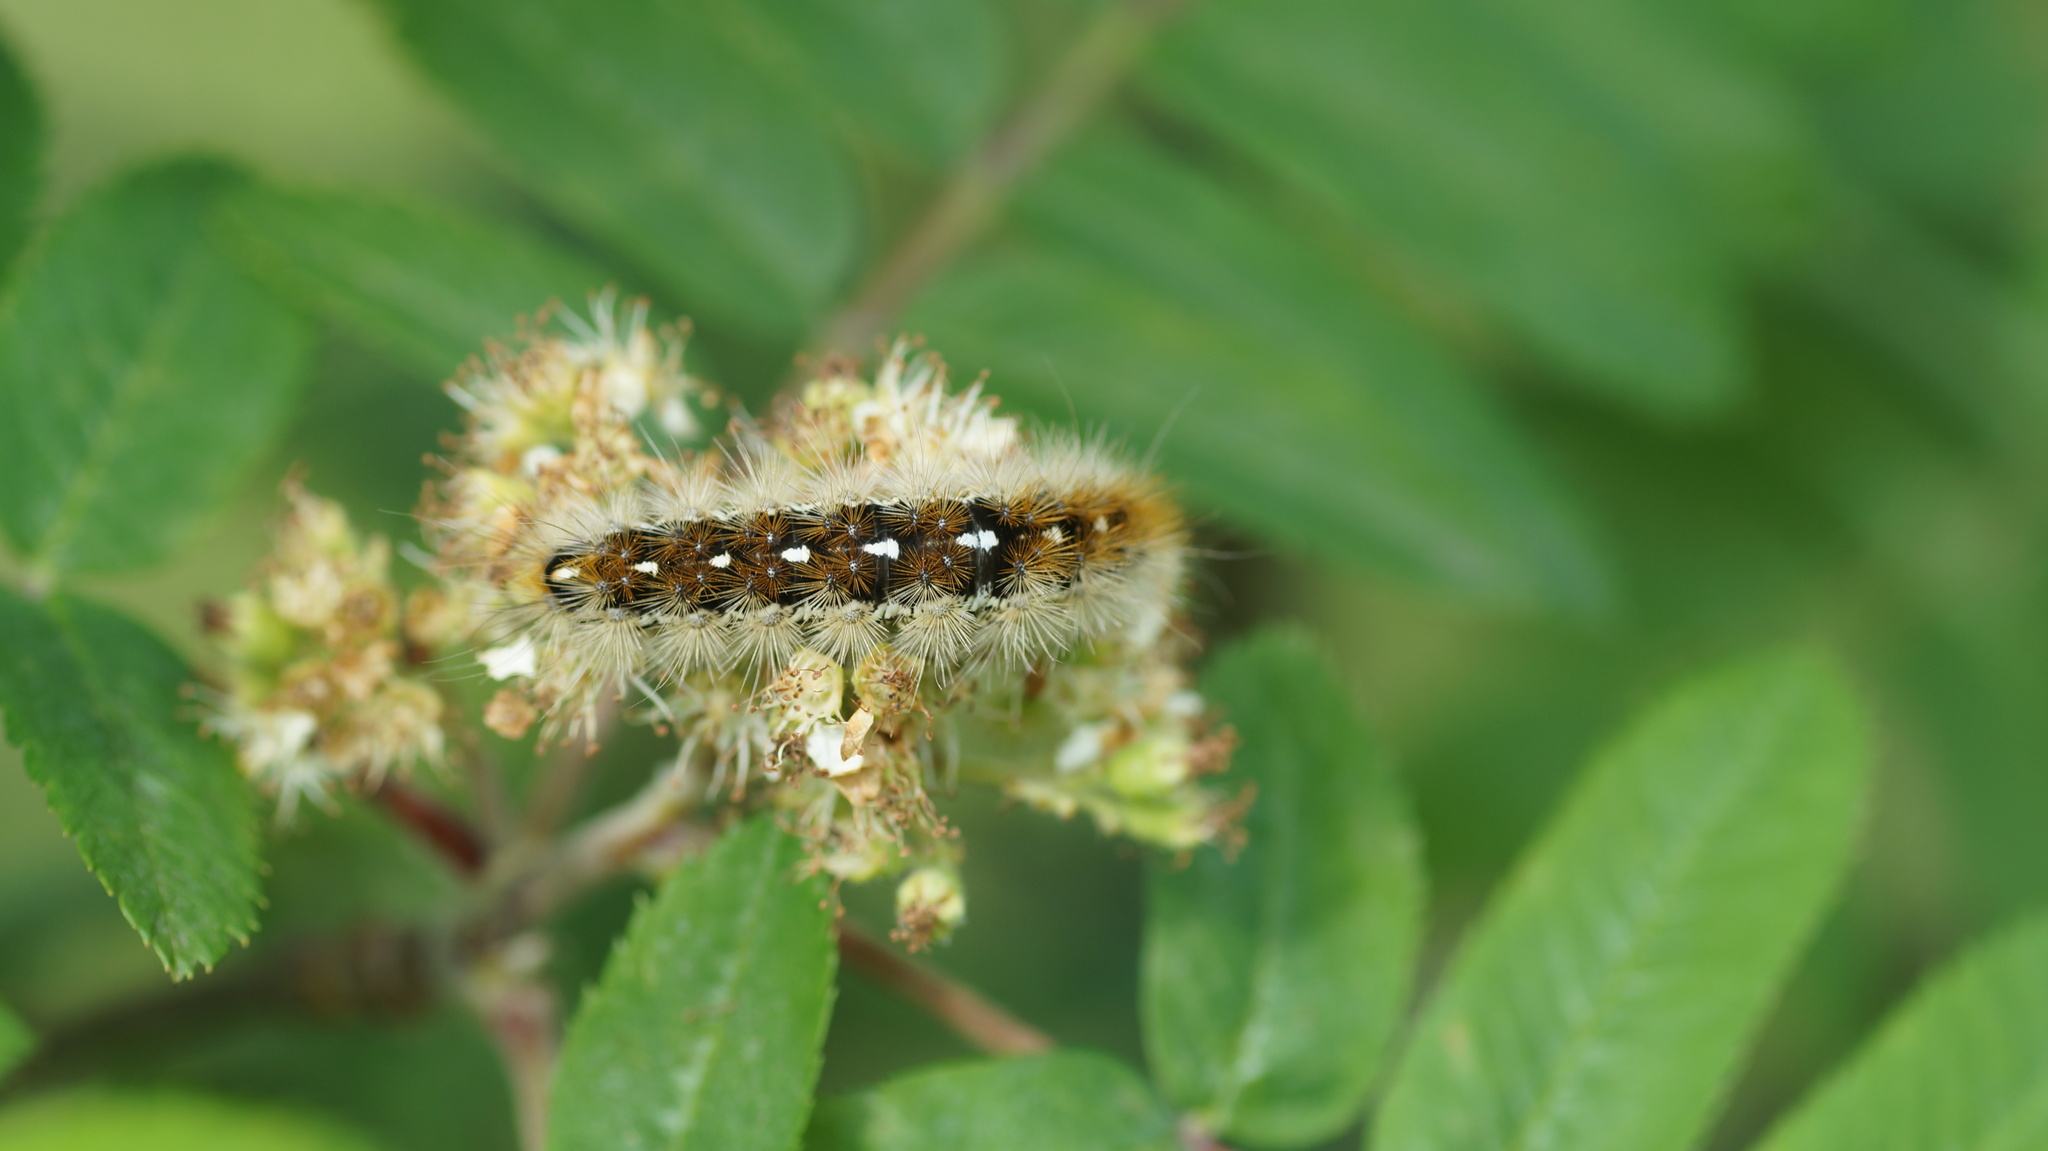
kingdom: Animalia
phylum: Arthropoda
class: Insecta
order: Lepidoptera
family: Erebidae
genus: Rhyparia
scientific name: Rhyparia purpurata
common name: Purple tiger
